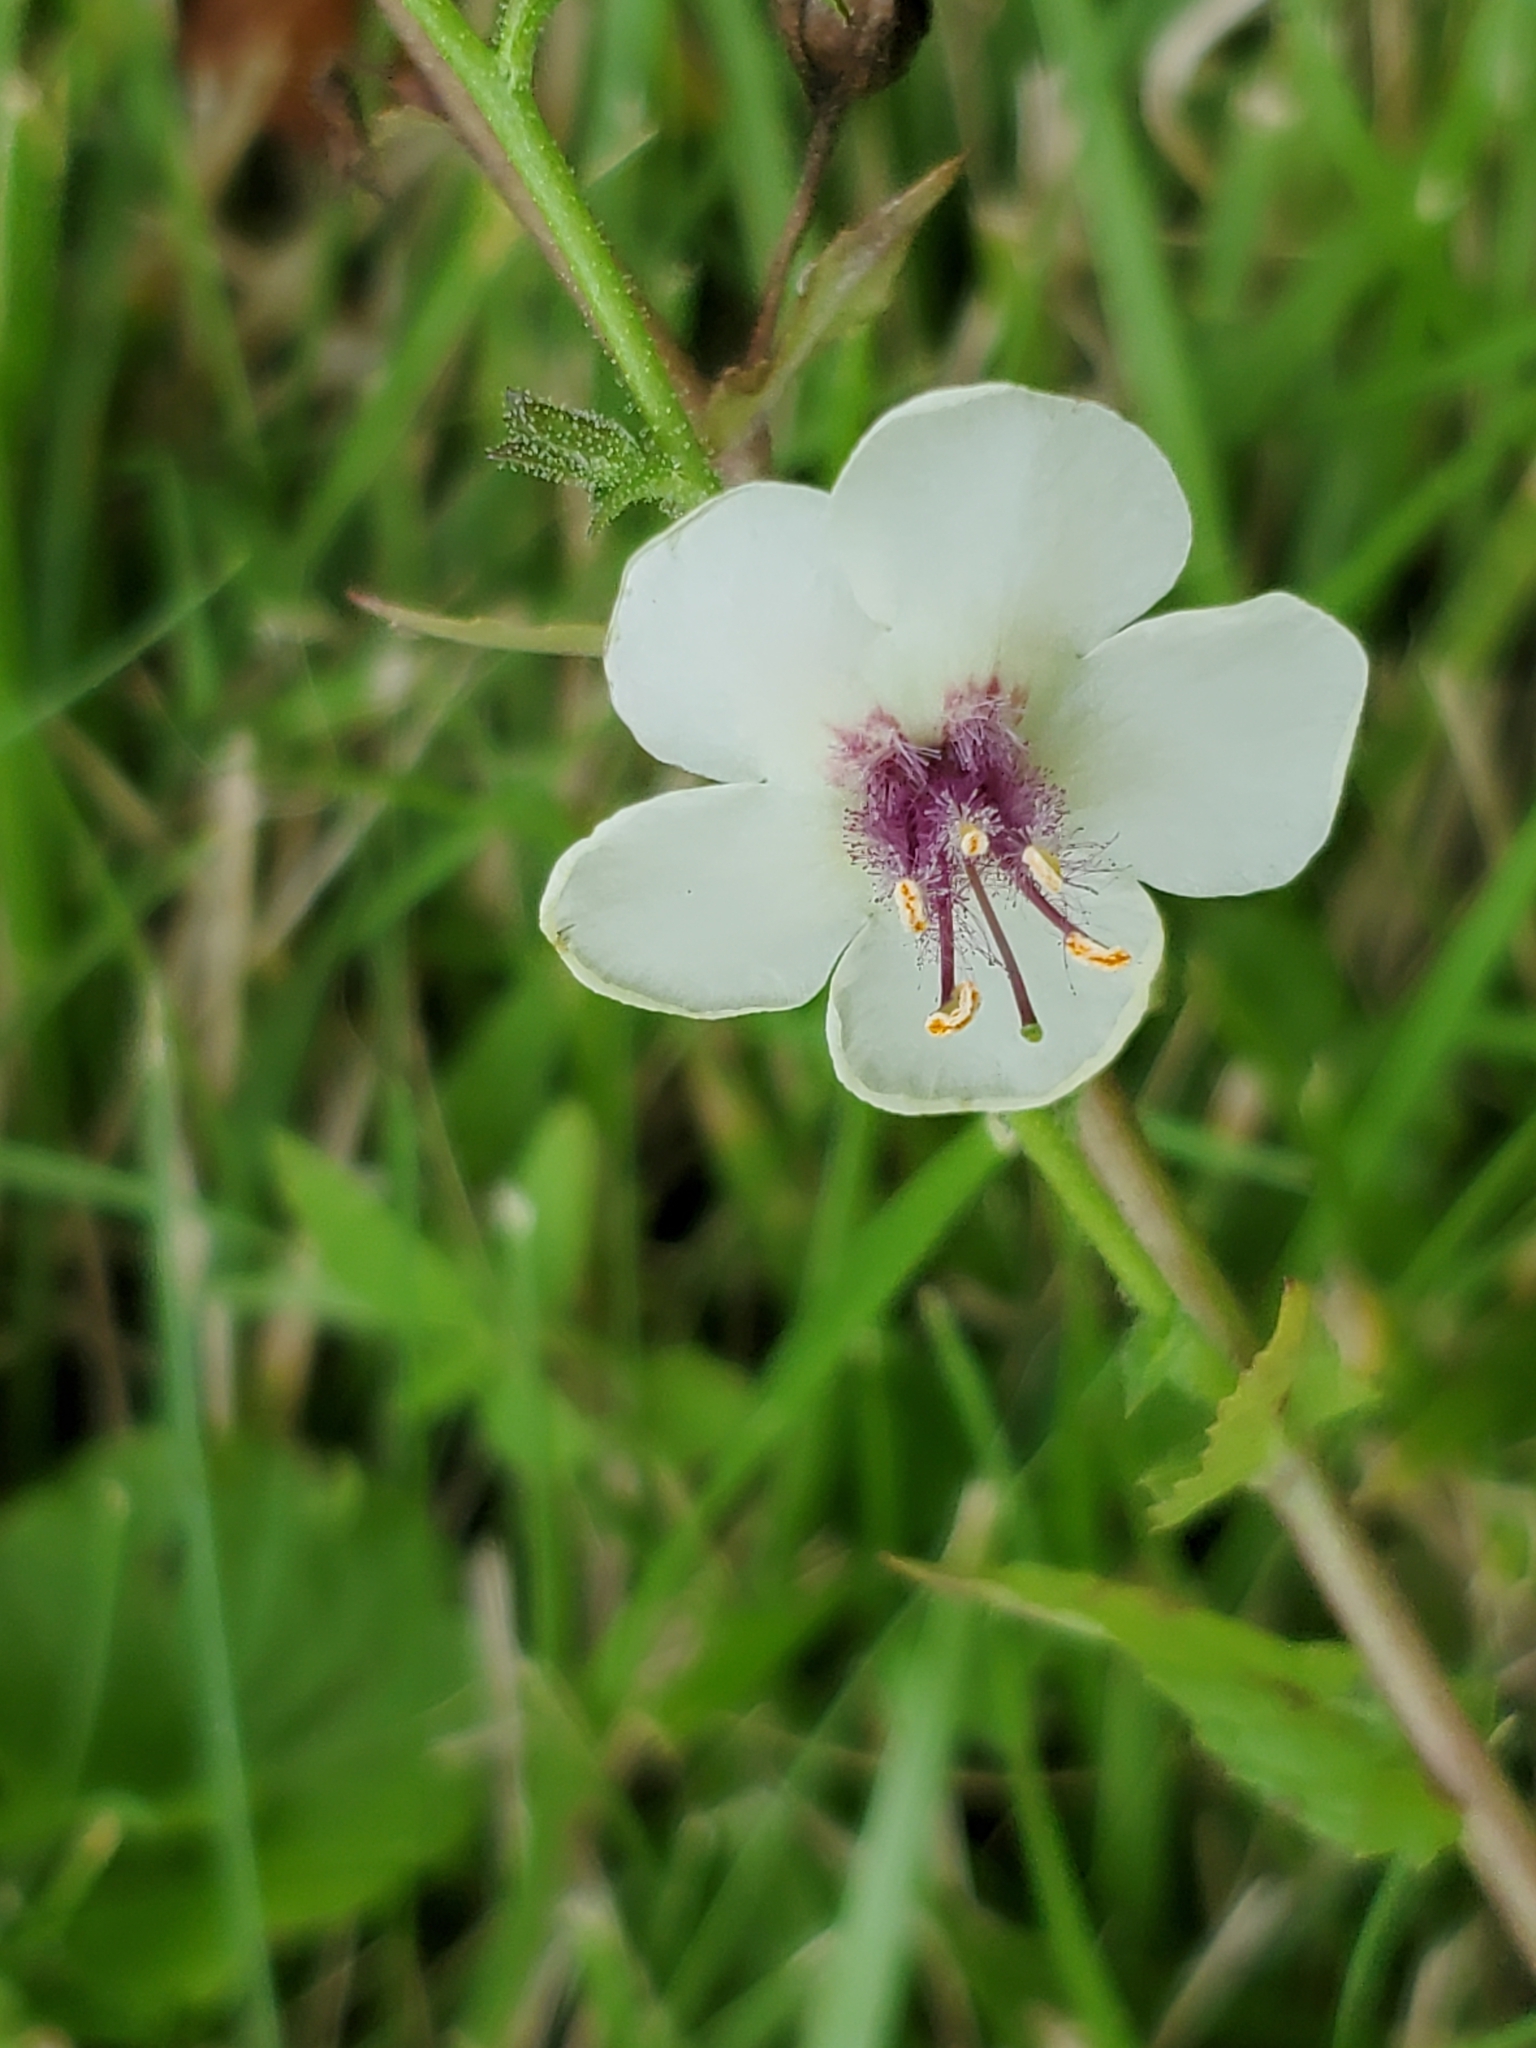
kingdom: Plantae
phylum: Tracheophyta
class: Magnoliopsida
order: Lamiales
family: Scrophulariaceae
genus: Verbascum
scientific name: Verbascum blattaria
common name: Moth mullein
